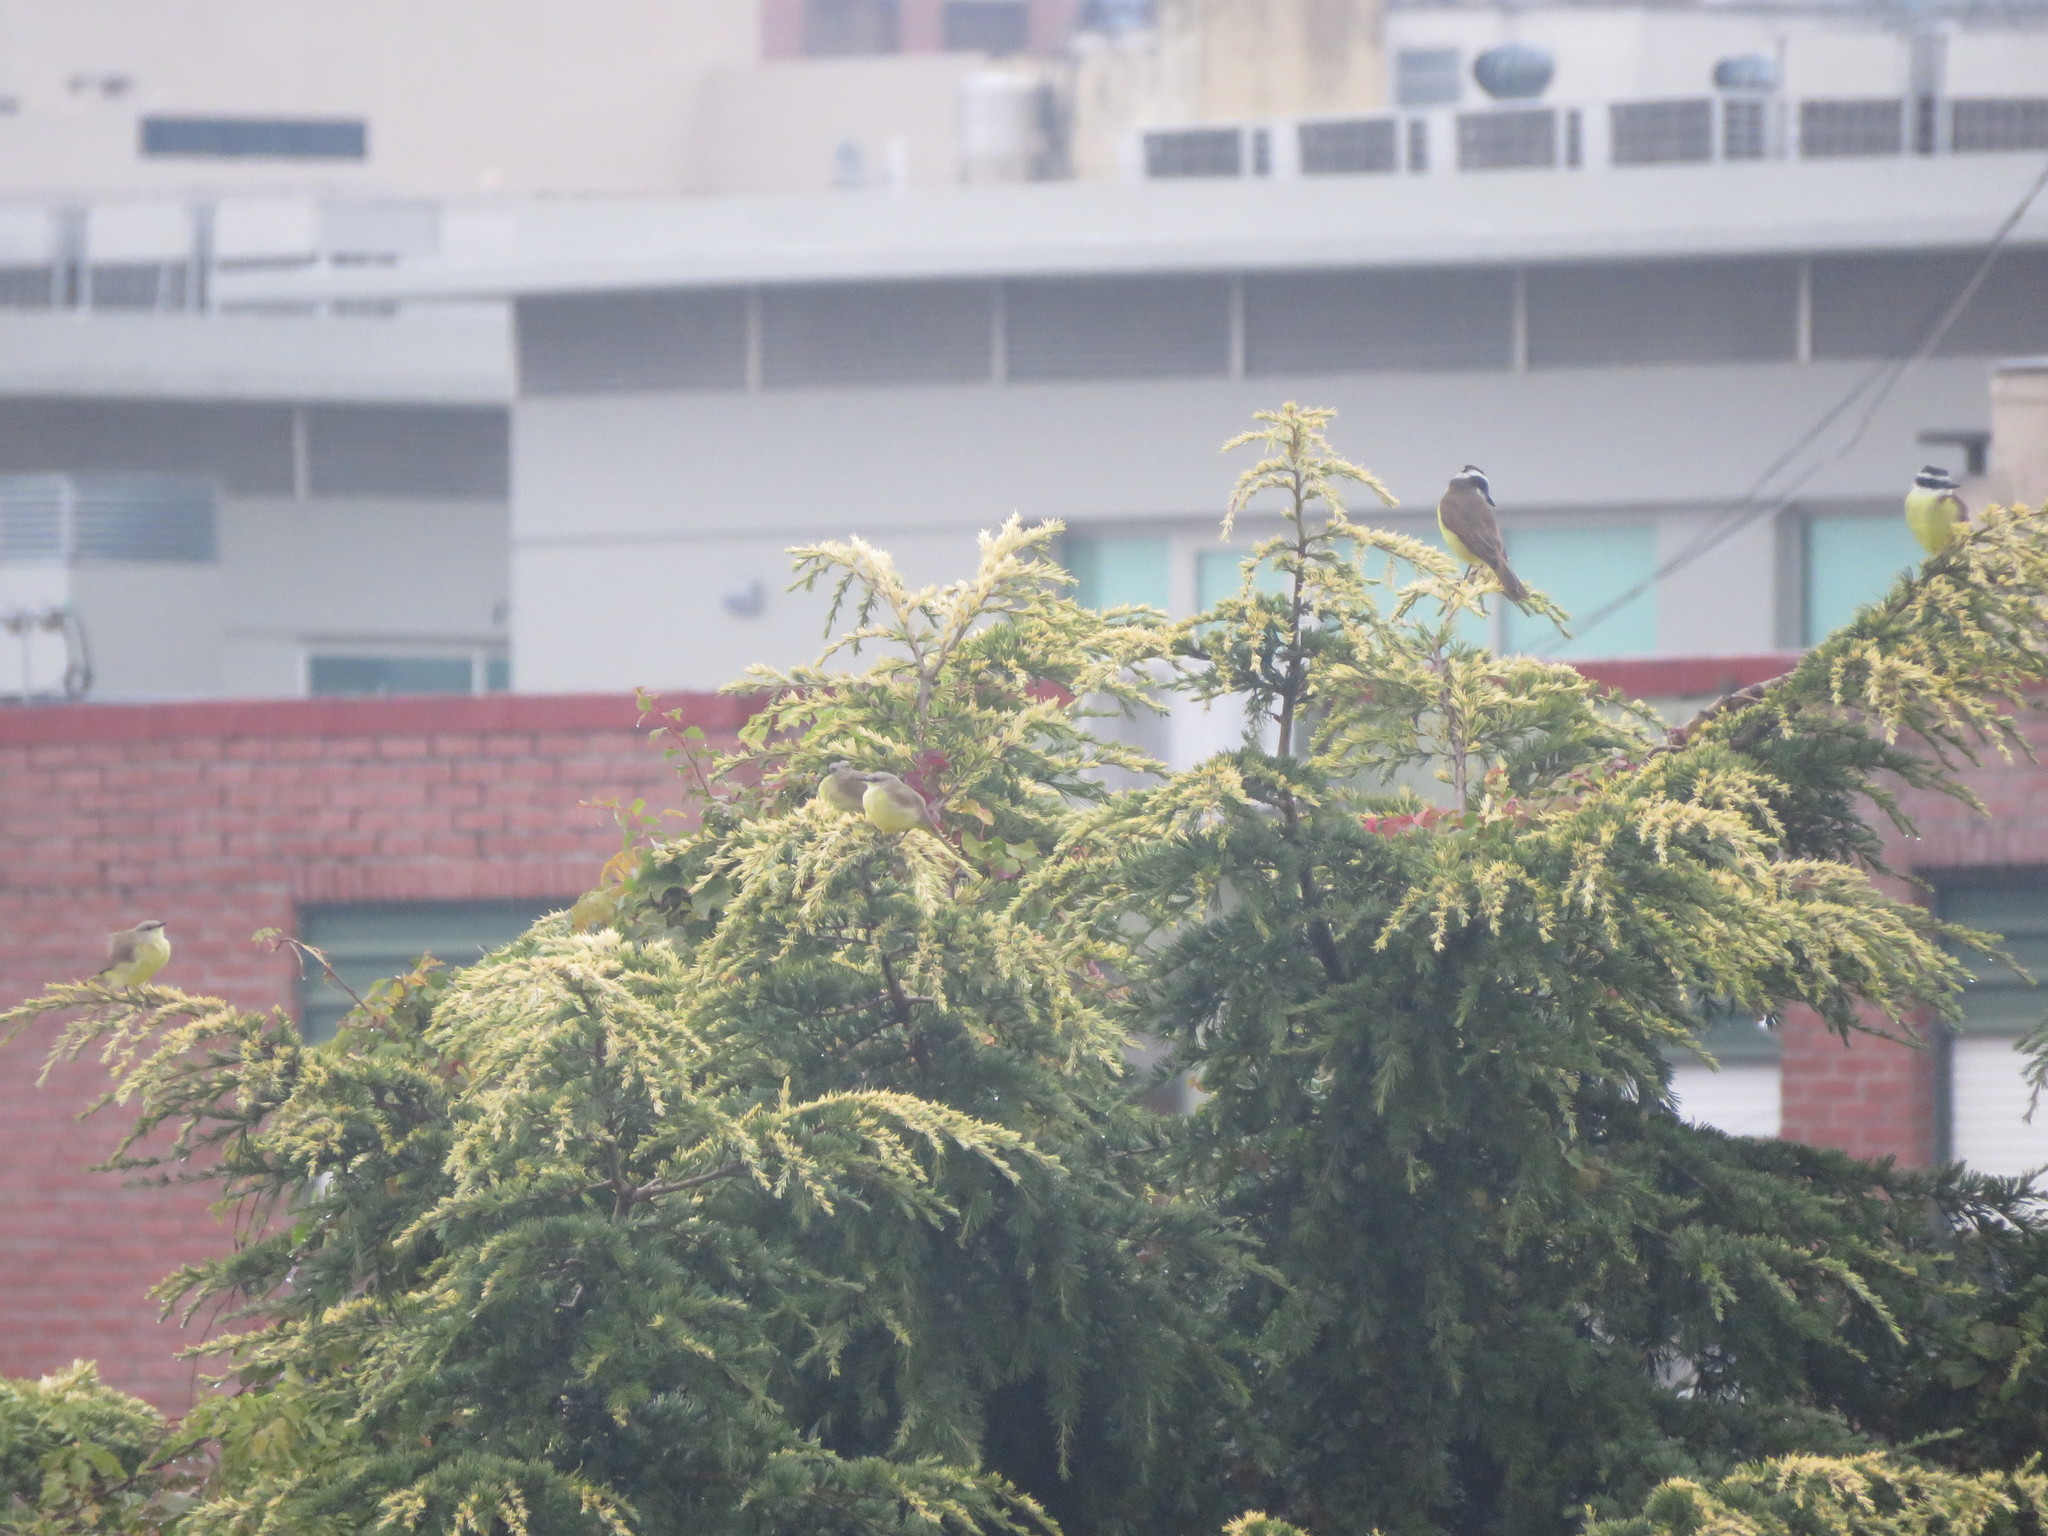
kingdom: Animalia
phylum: Chordata
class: Aves
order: Passeriformes
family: Tyrannidae
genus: Machetornis
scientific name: Machetornis rixosa
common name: Cattle tyrant
